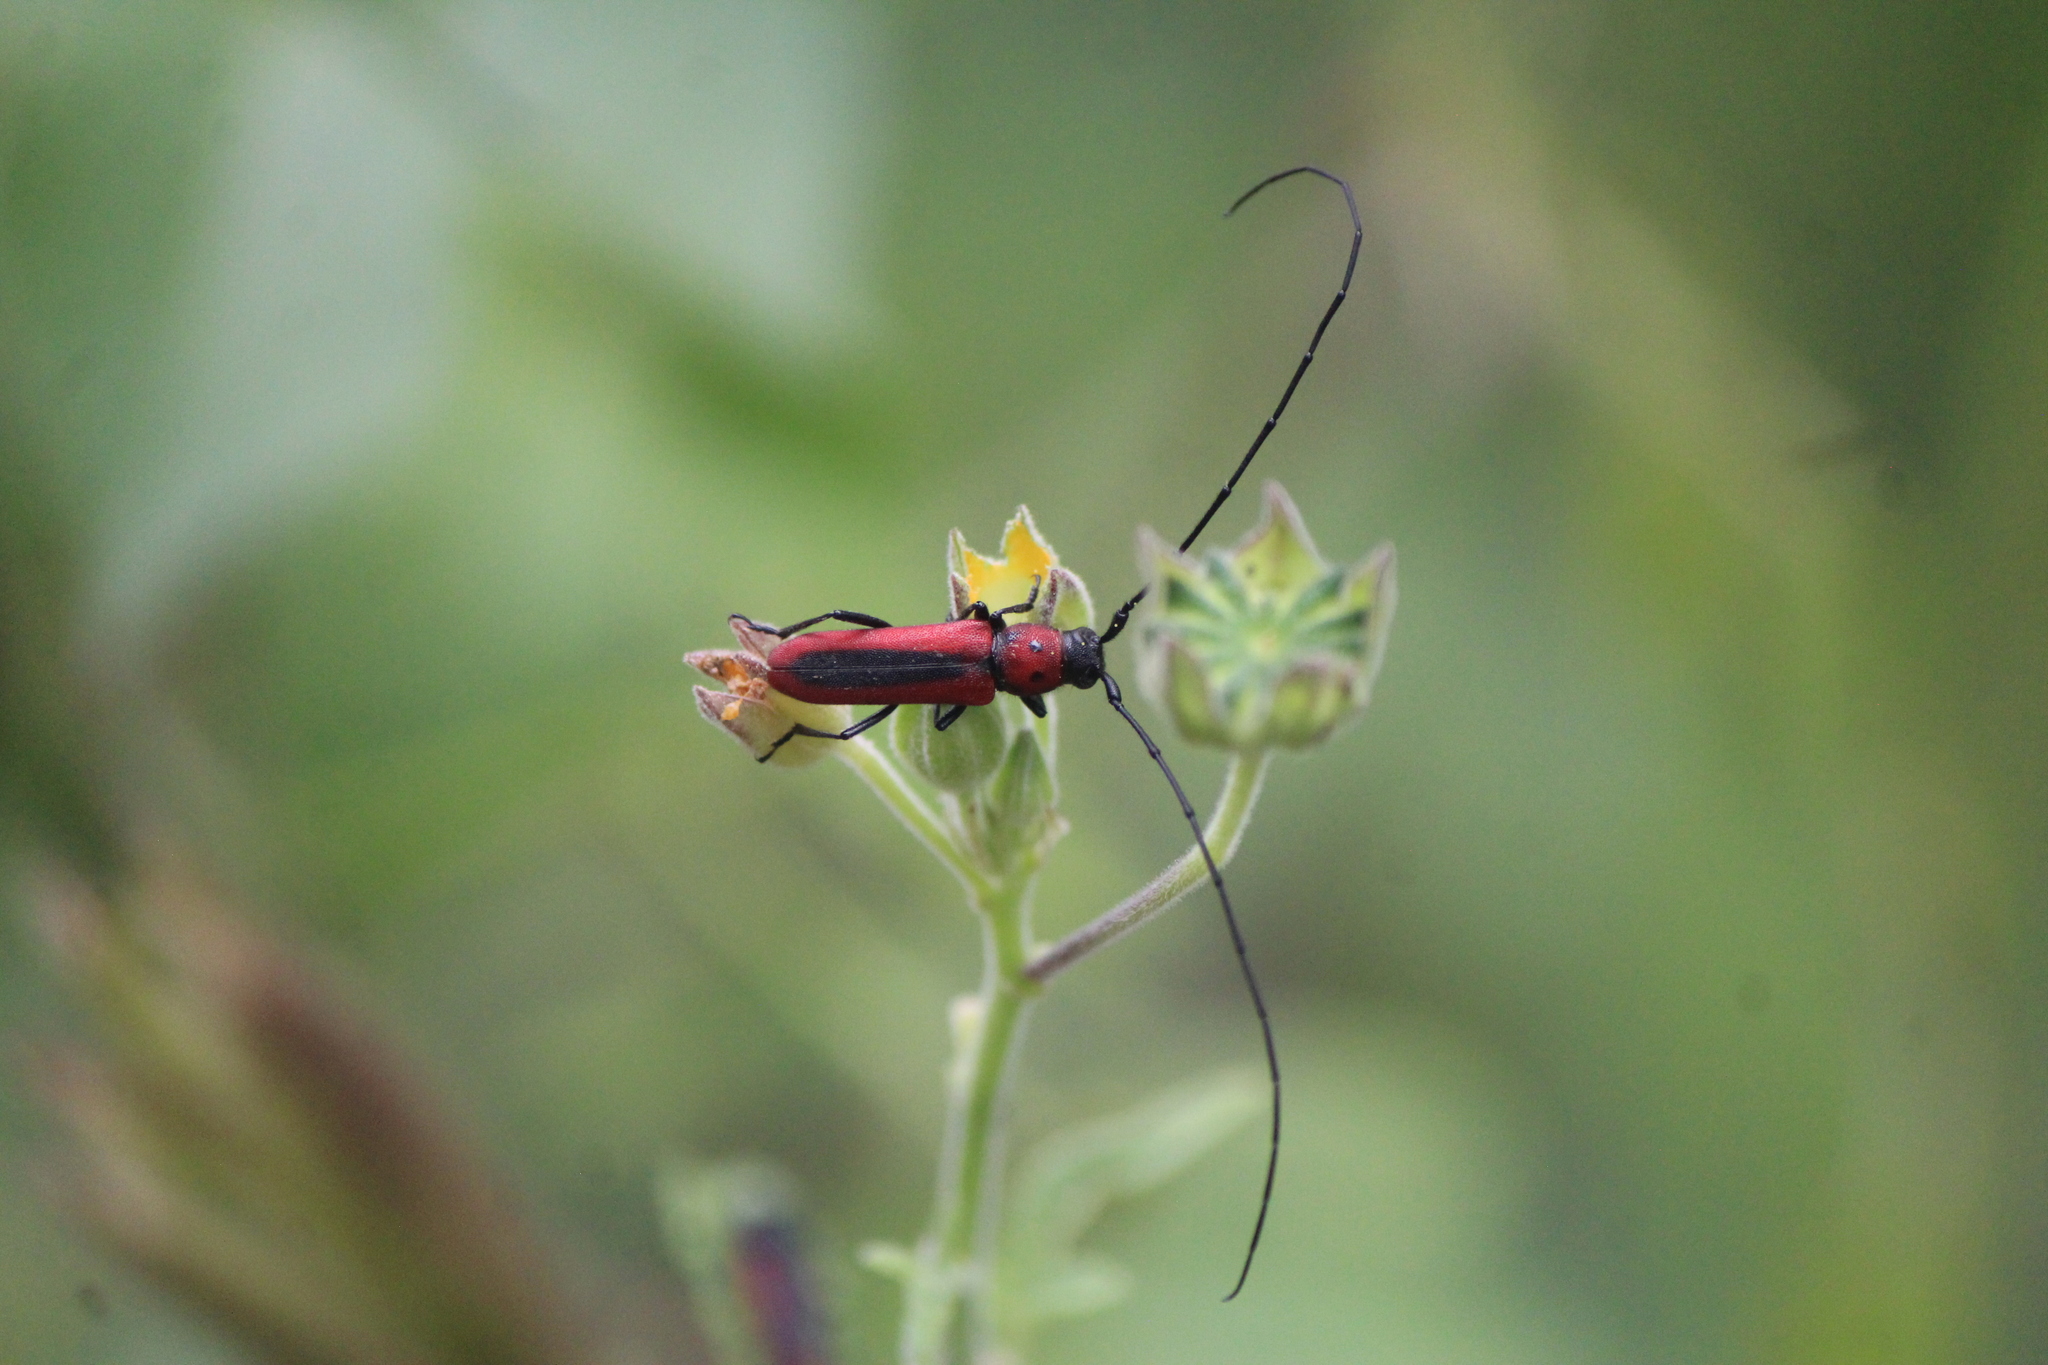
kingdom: Animalia
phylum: Arthropoda
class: Insecta
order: Coleoptera
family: Cerambycidae
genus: Tylosis
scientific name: Tylosis suturalis
